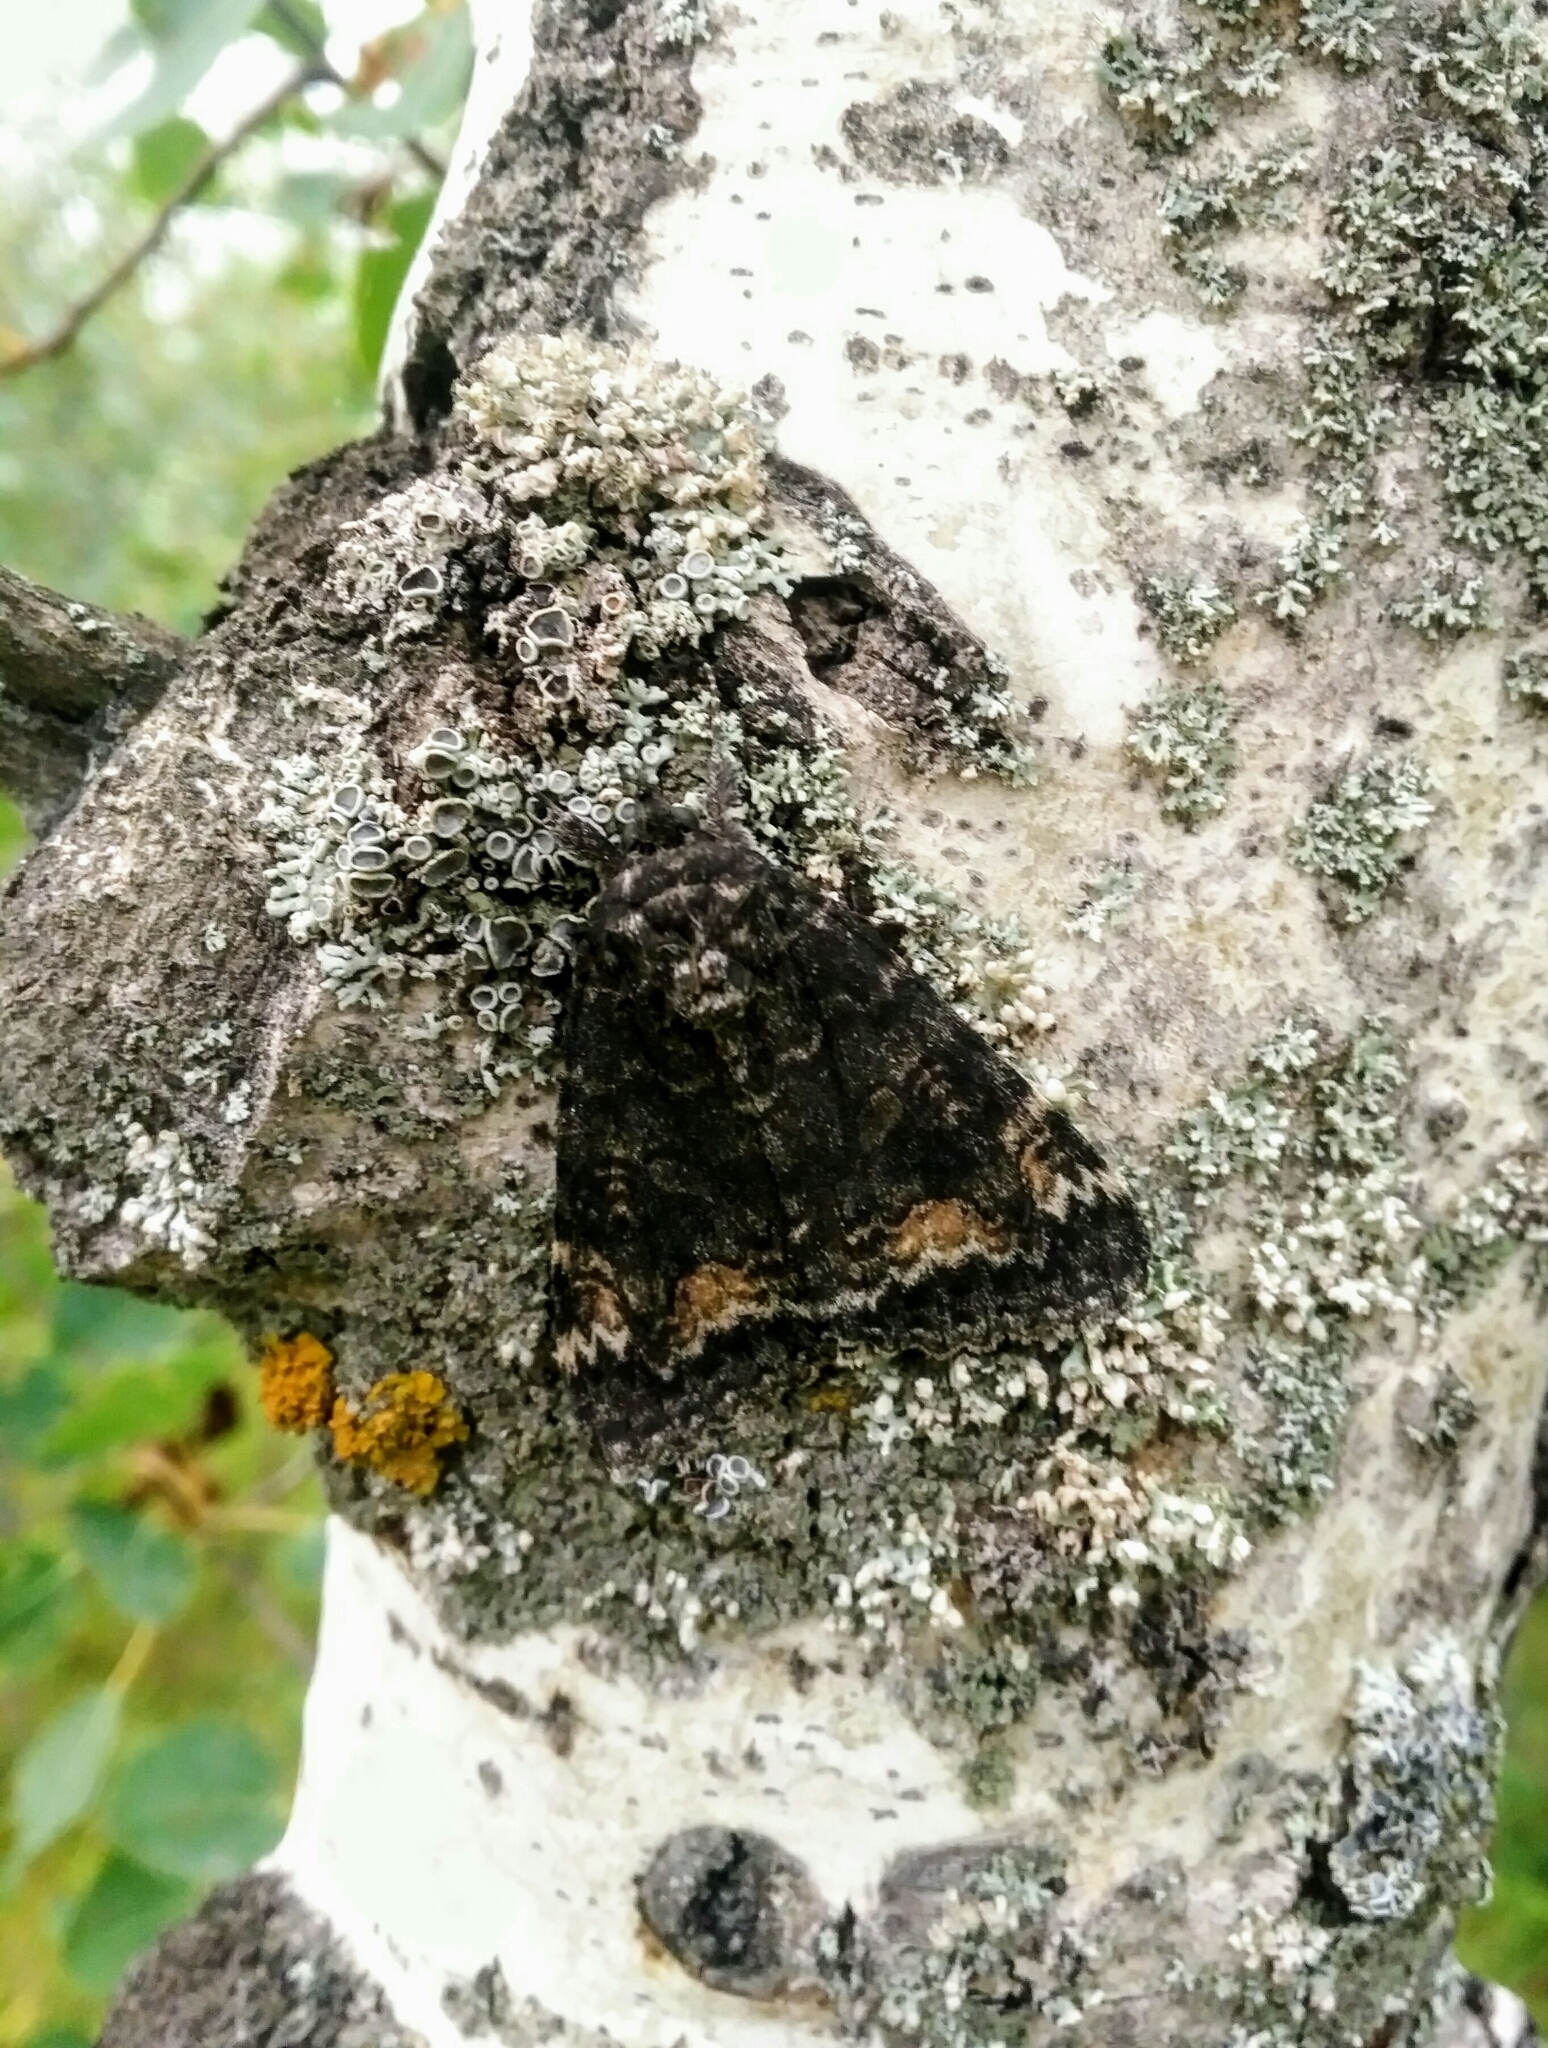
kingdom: Animalia
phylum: Arthropoda
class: Insecta
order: Lepidoptera
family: Erebidae
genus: Catocala
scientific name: Catocala briseis
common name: Briseis underwing
